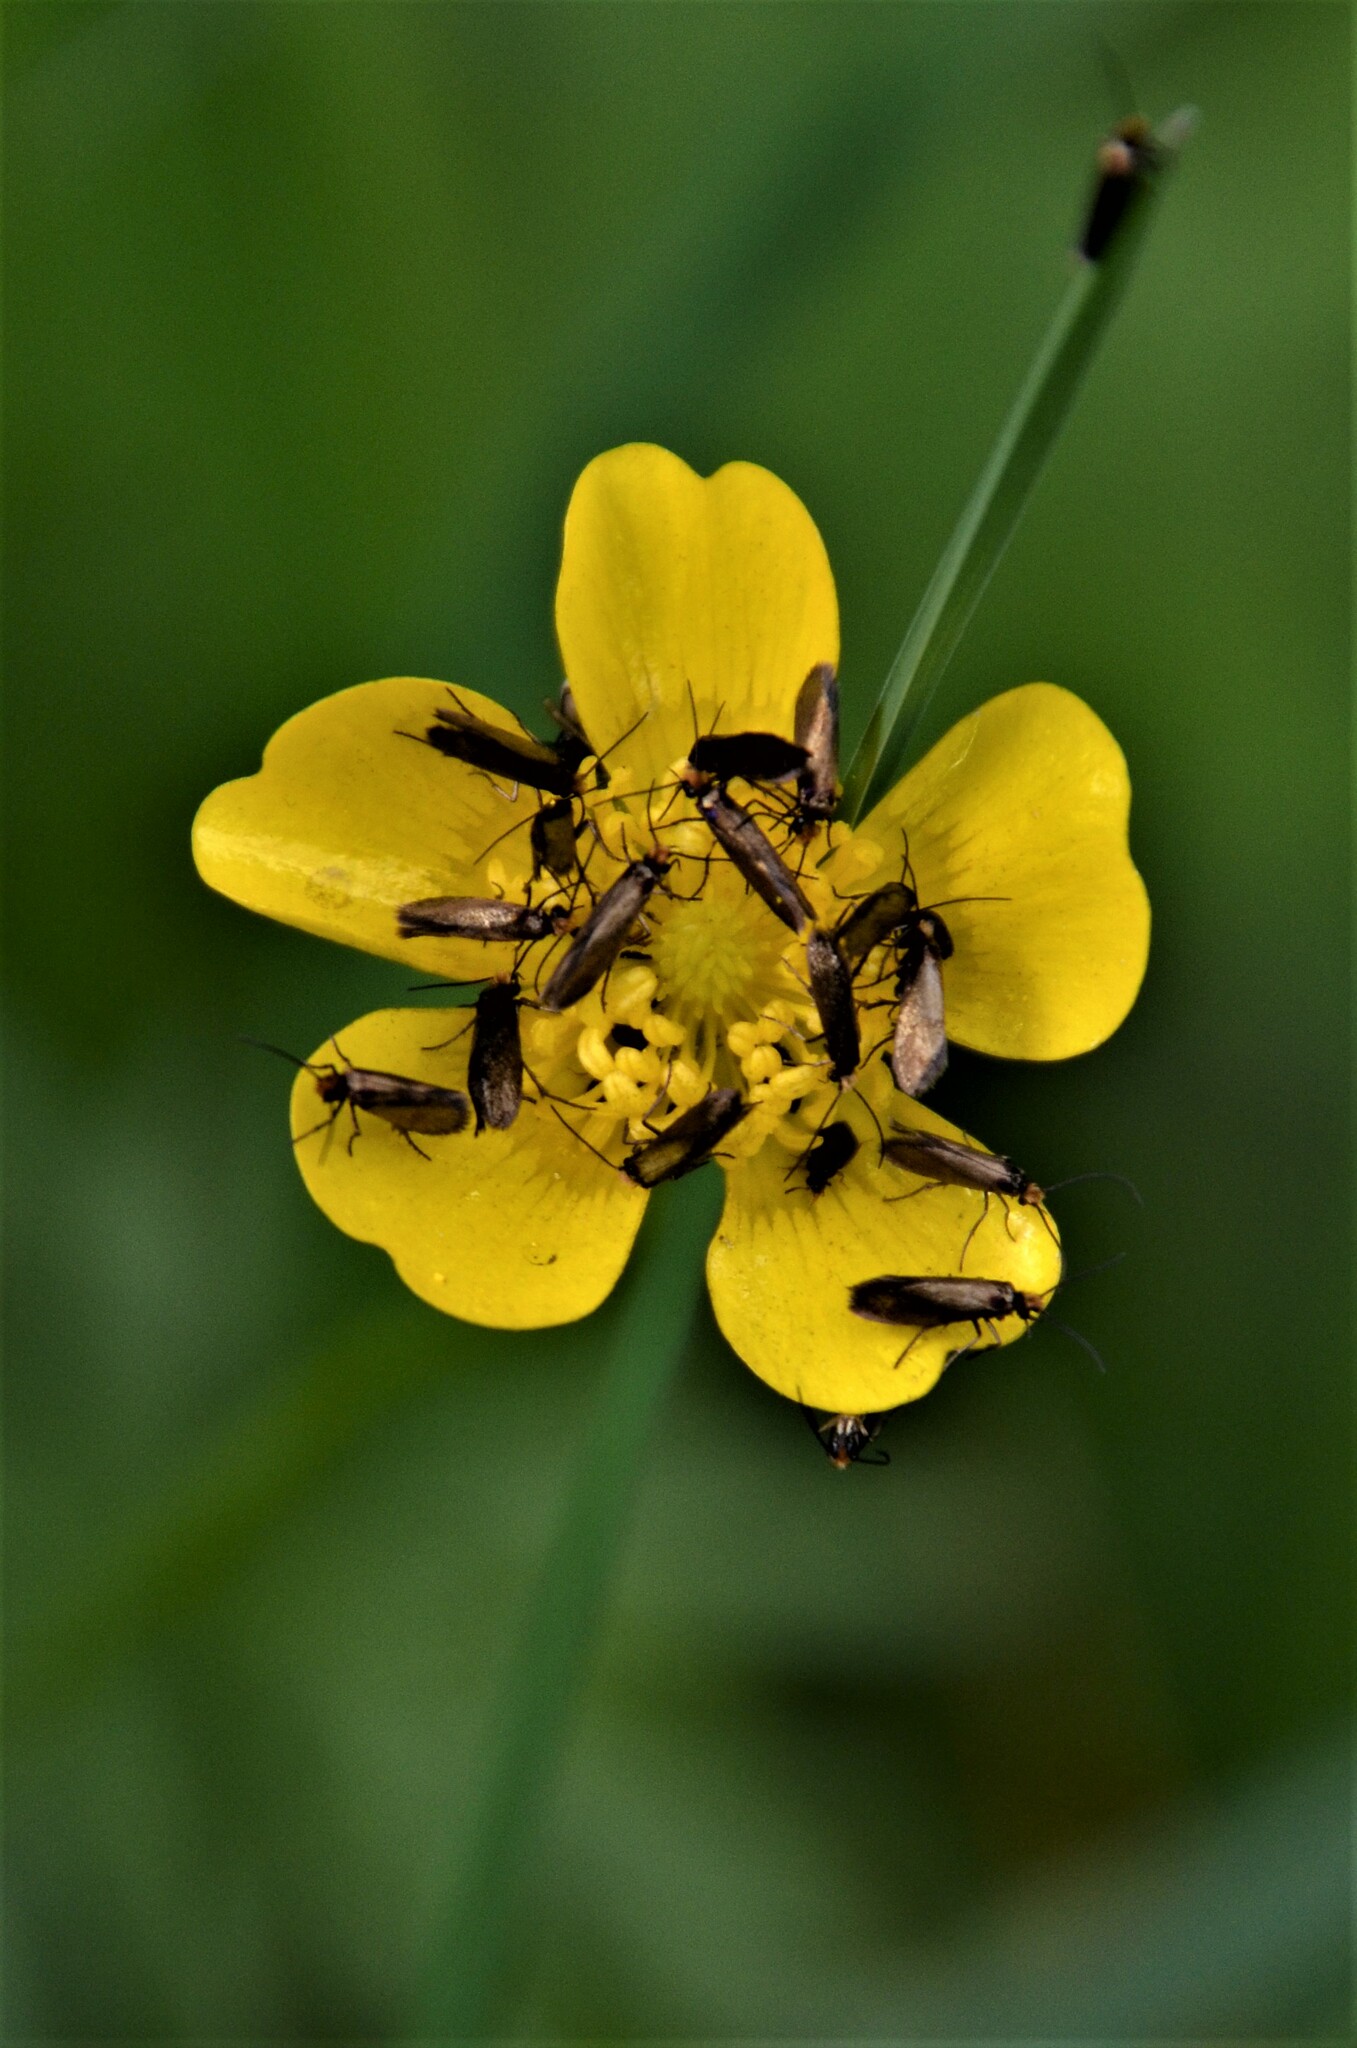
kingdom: Animalia
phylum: Arthropoda
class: Insecta
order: Lepidoptera
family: Micropterigidae
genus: Micropterix
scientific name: Micropterix calthella
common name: Plain gold
